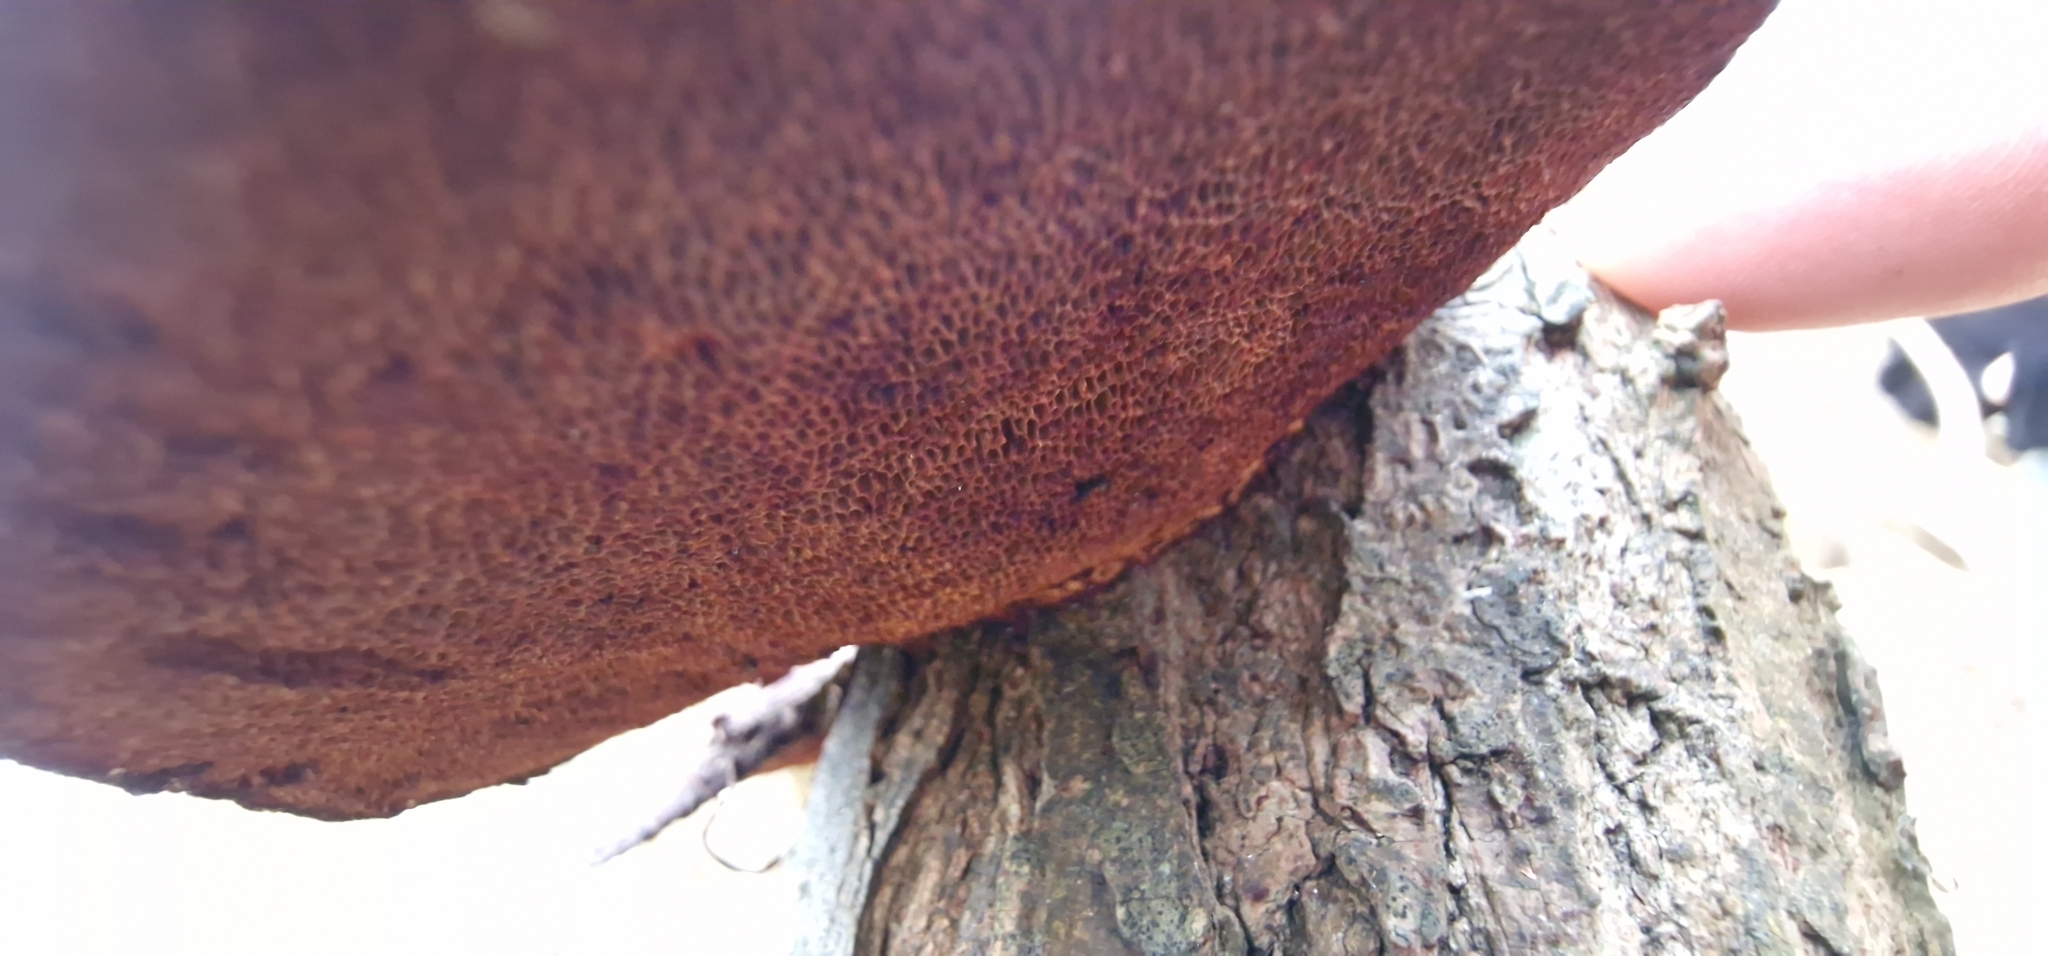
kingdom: Fungi
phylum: Basidiomycota
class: Agaricomycetes
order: Polyporales
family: Polyporaceae
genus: Daedaleopsis
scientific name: Daedaleopsis confragosa
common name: Blushing bracket
